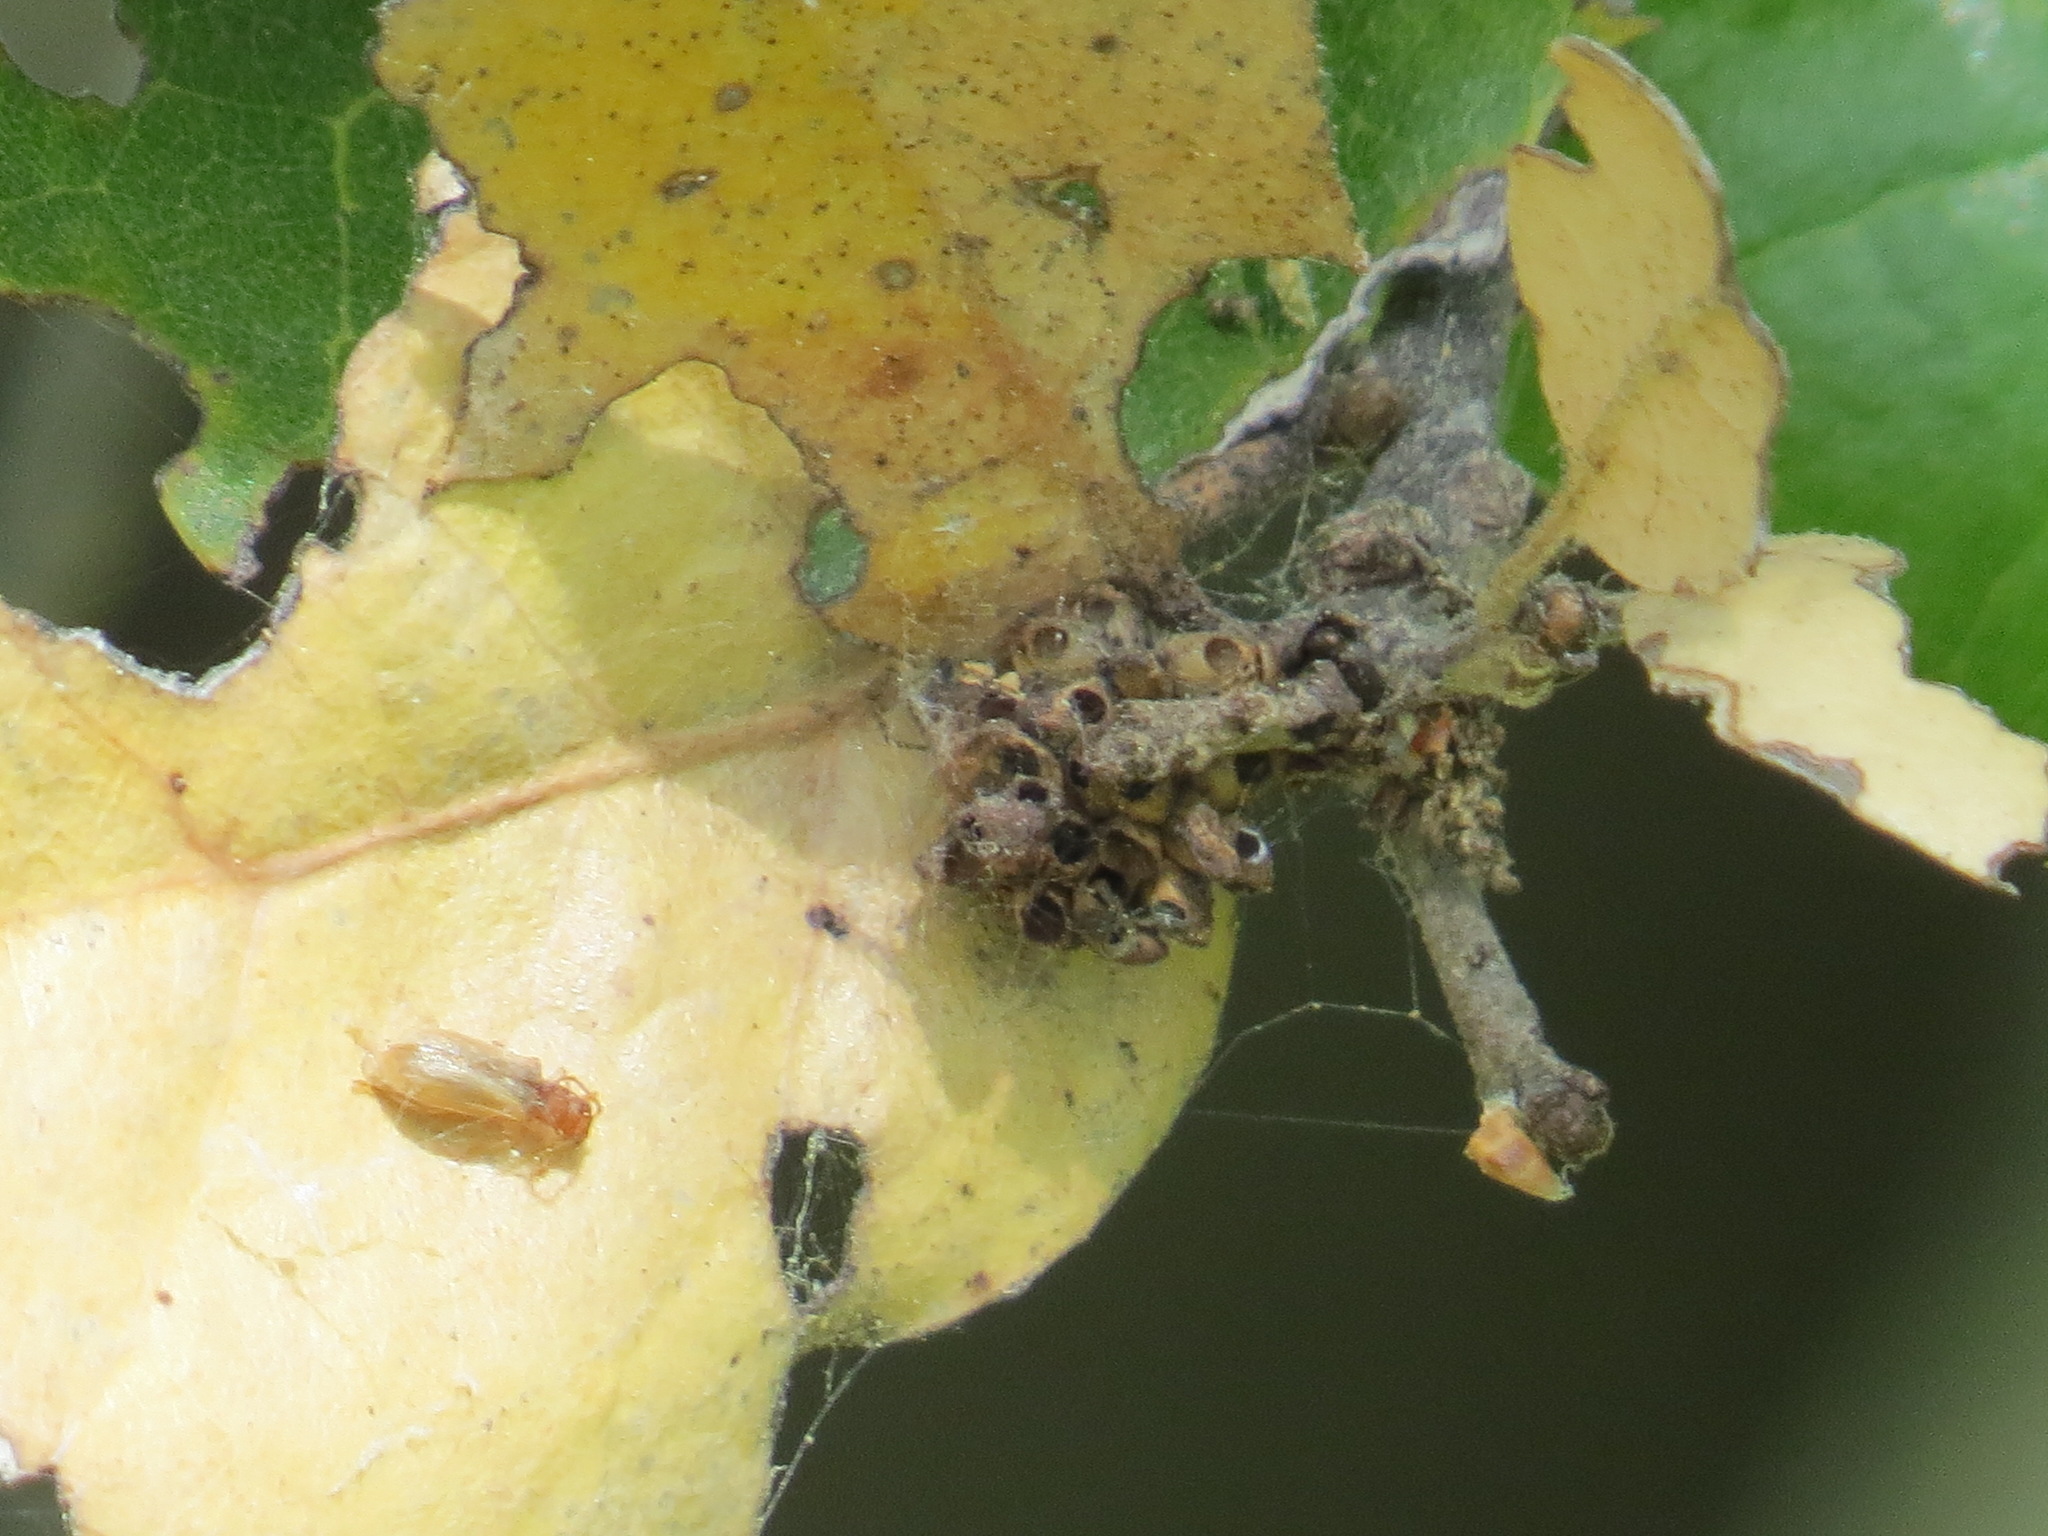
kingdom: Animalia
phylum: Arthropoda
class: Insecta
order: Hymenoptera
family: Cynipidae
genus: Callirhytis
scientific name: Callirhytis
